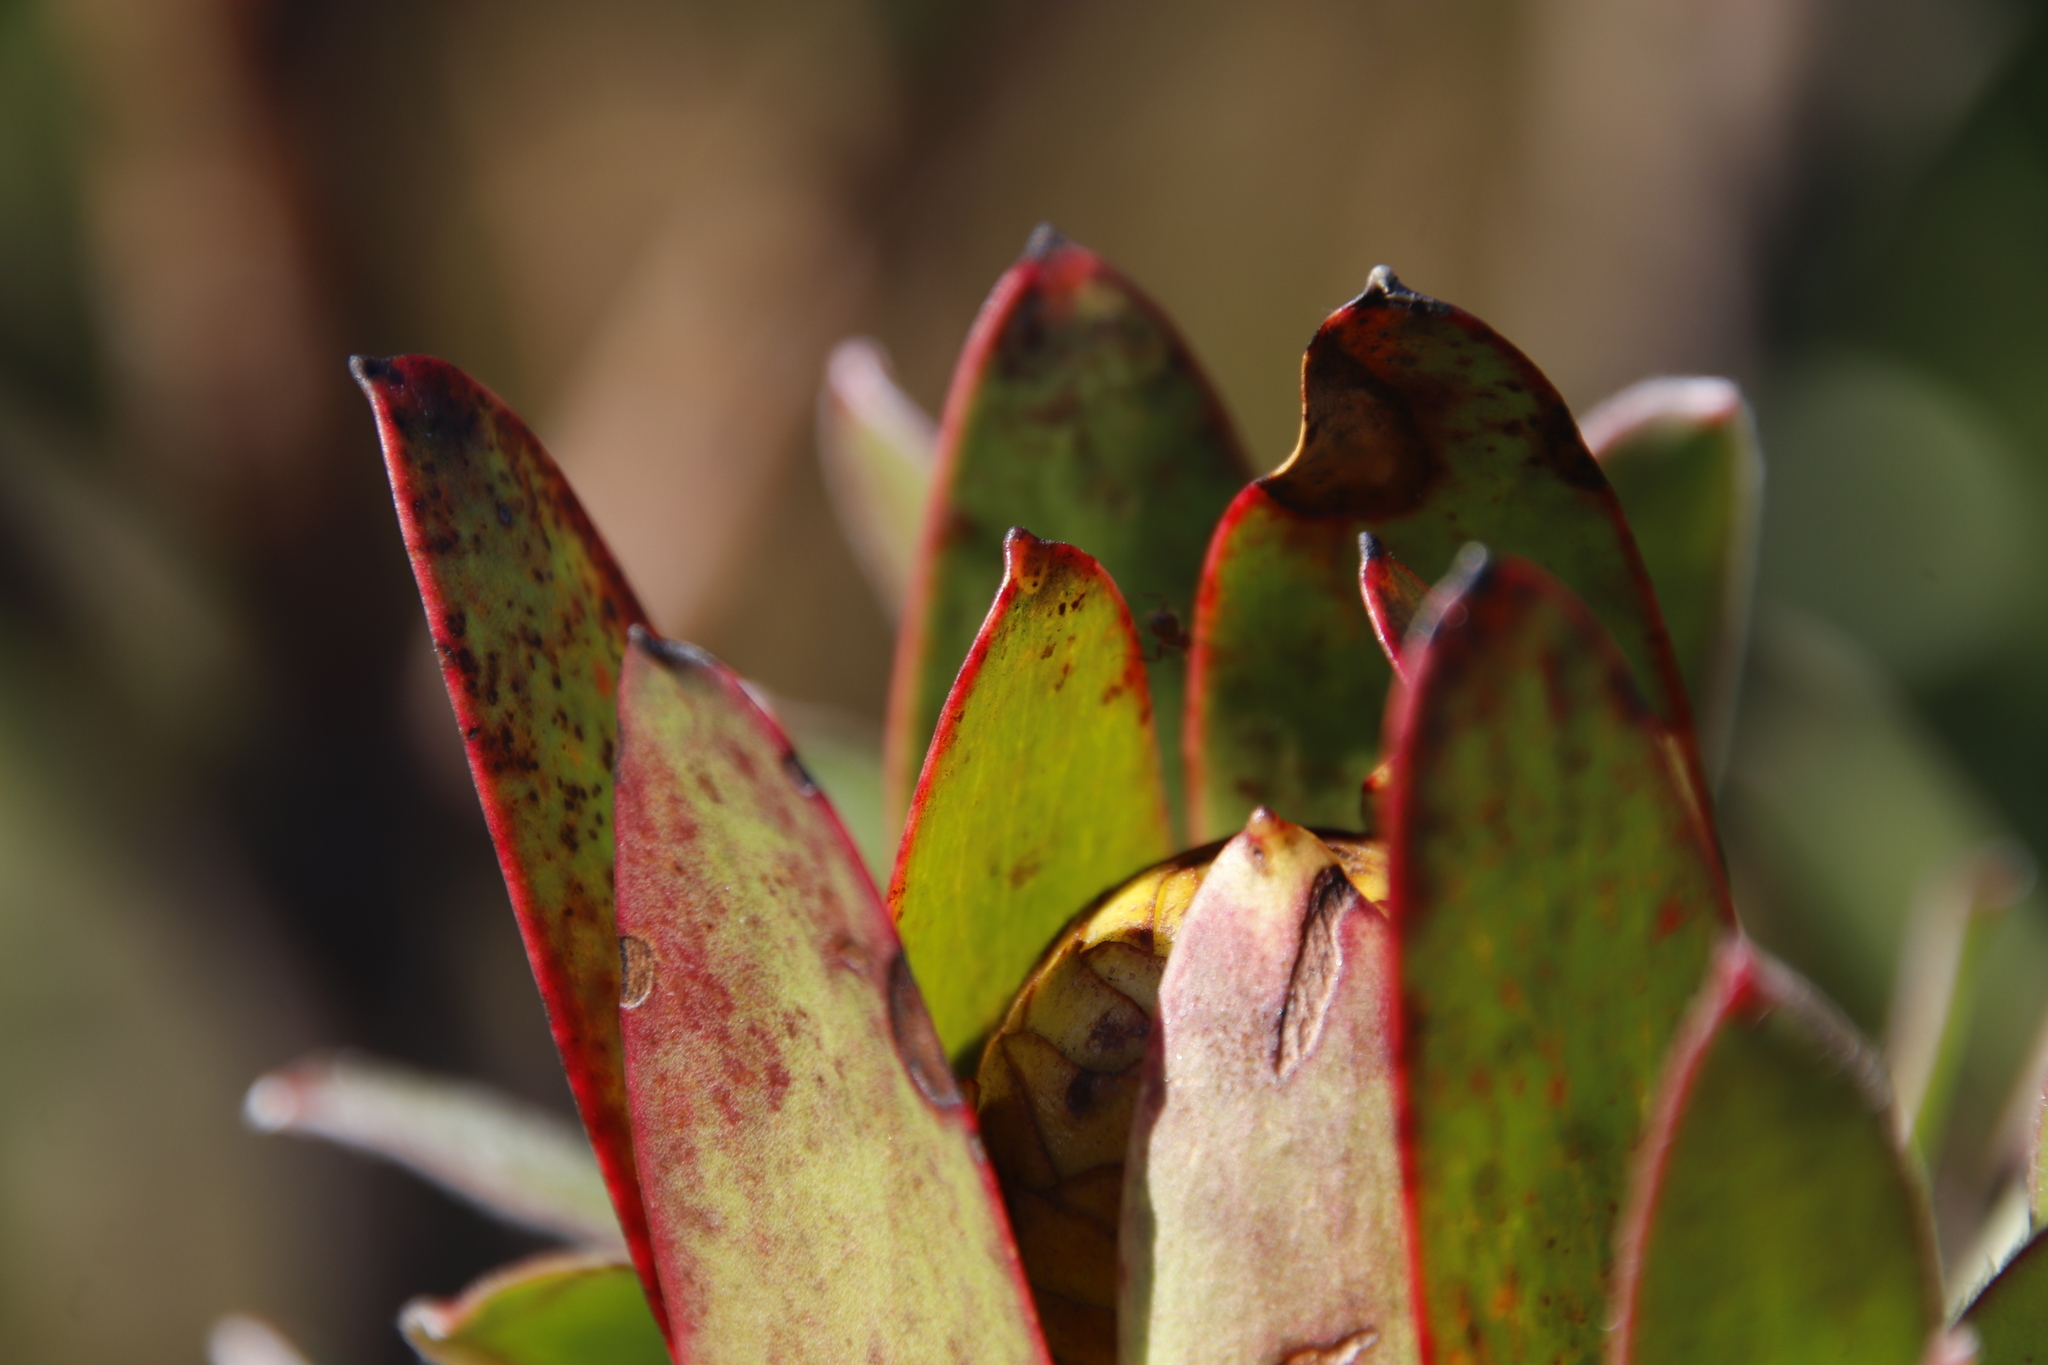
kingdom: Plantae
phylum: Tracheophyta
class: Magnoliopsida
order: Proteales
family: Proteaceae
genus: Leucadendron
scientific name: Leucadendron laureolum
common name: Golden sunshinebush
